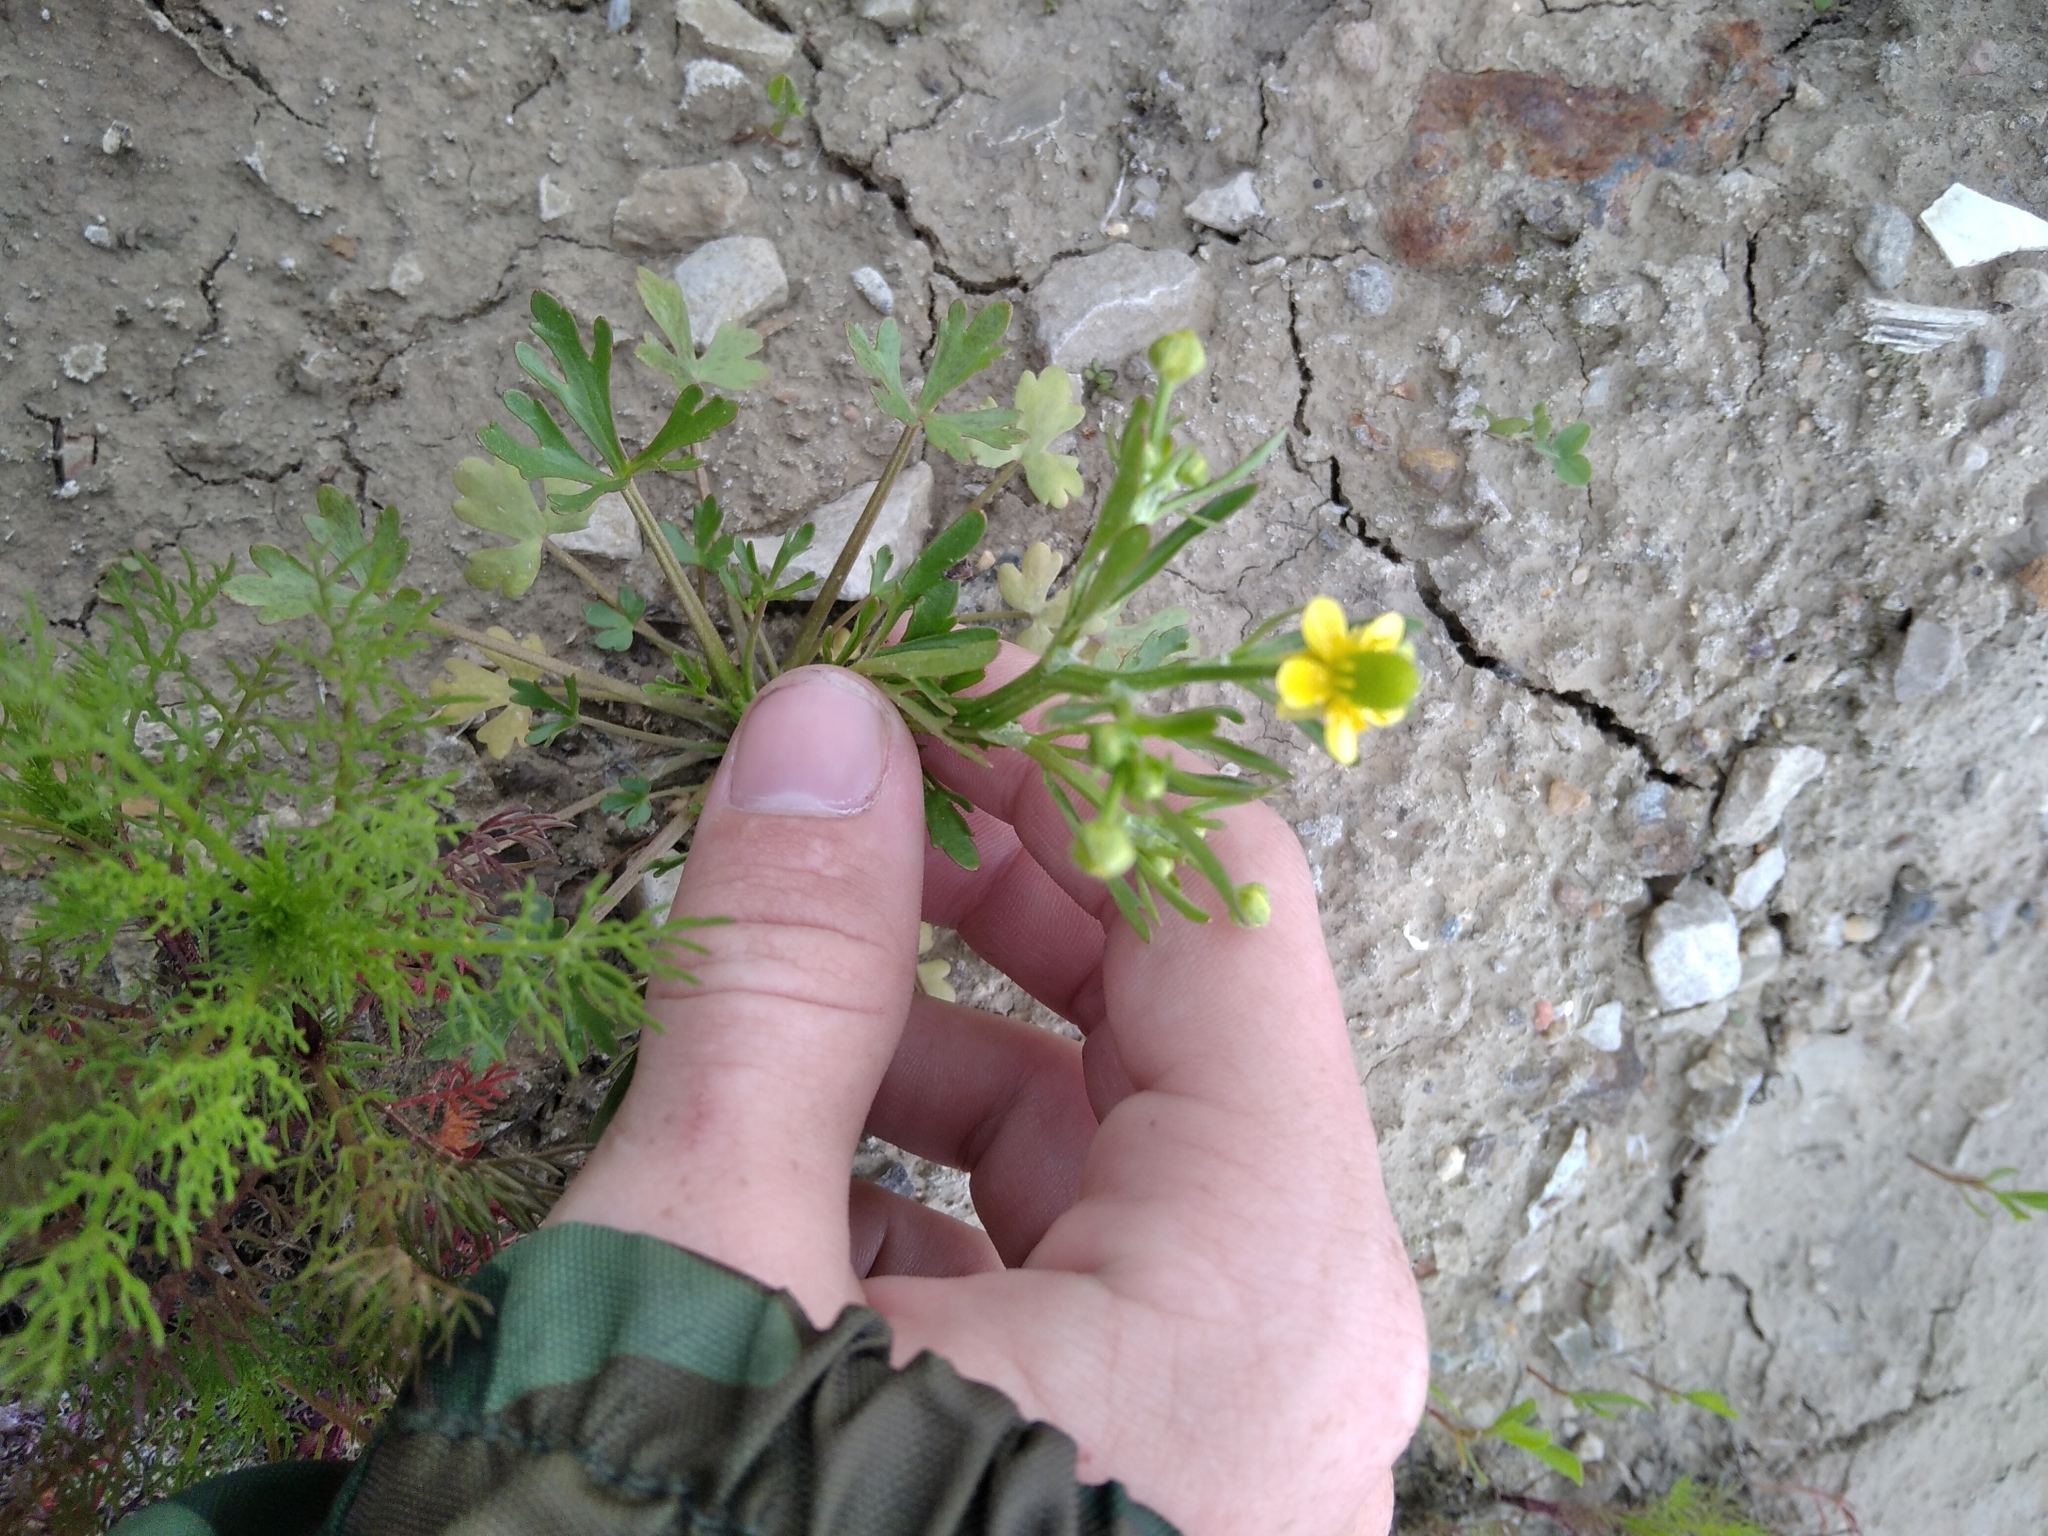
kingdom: Plantae
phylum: Tracheophyta
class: Magnoliopsida
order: Ranunculales
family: Ranunculaceae
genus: Ranunculus
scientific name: Ranunculus sceleratus
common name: Celery-leaved buttercup
